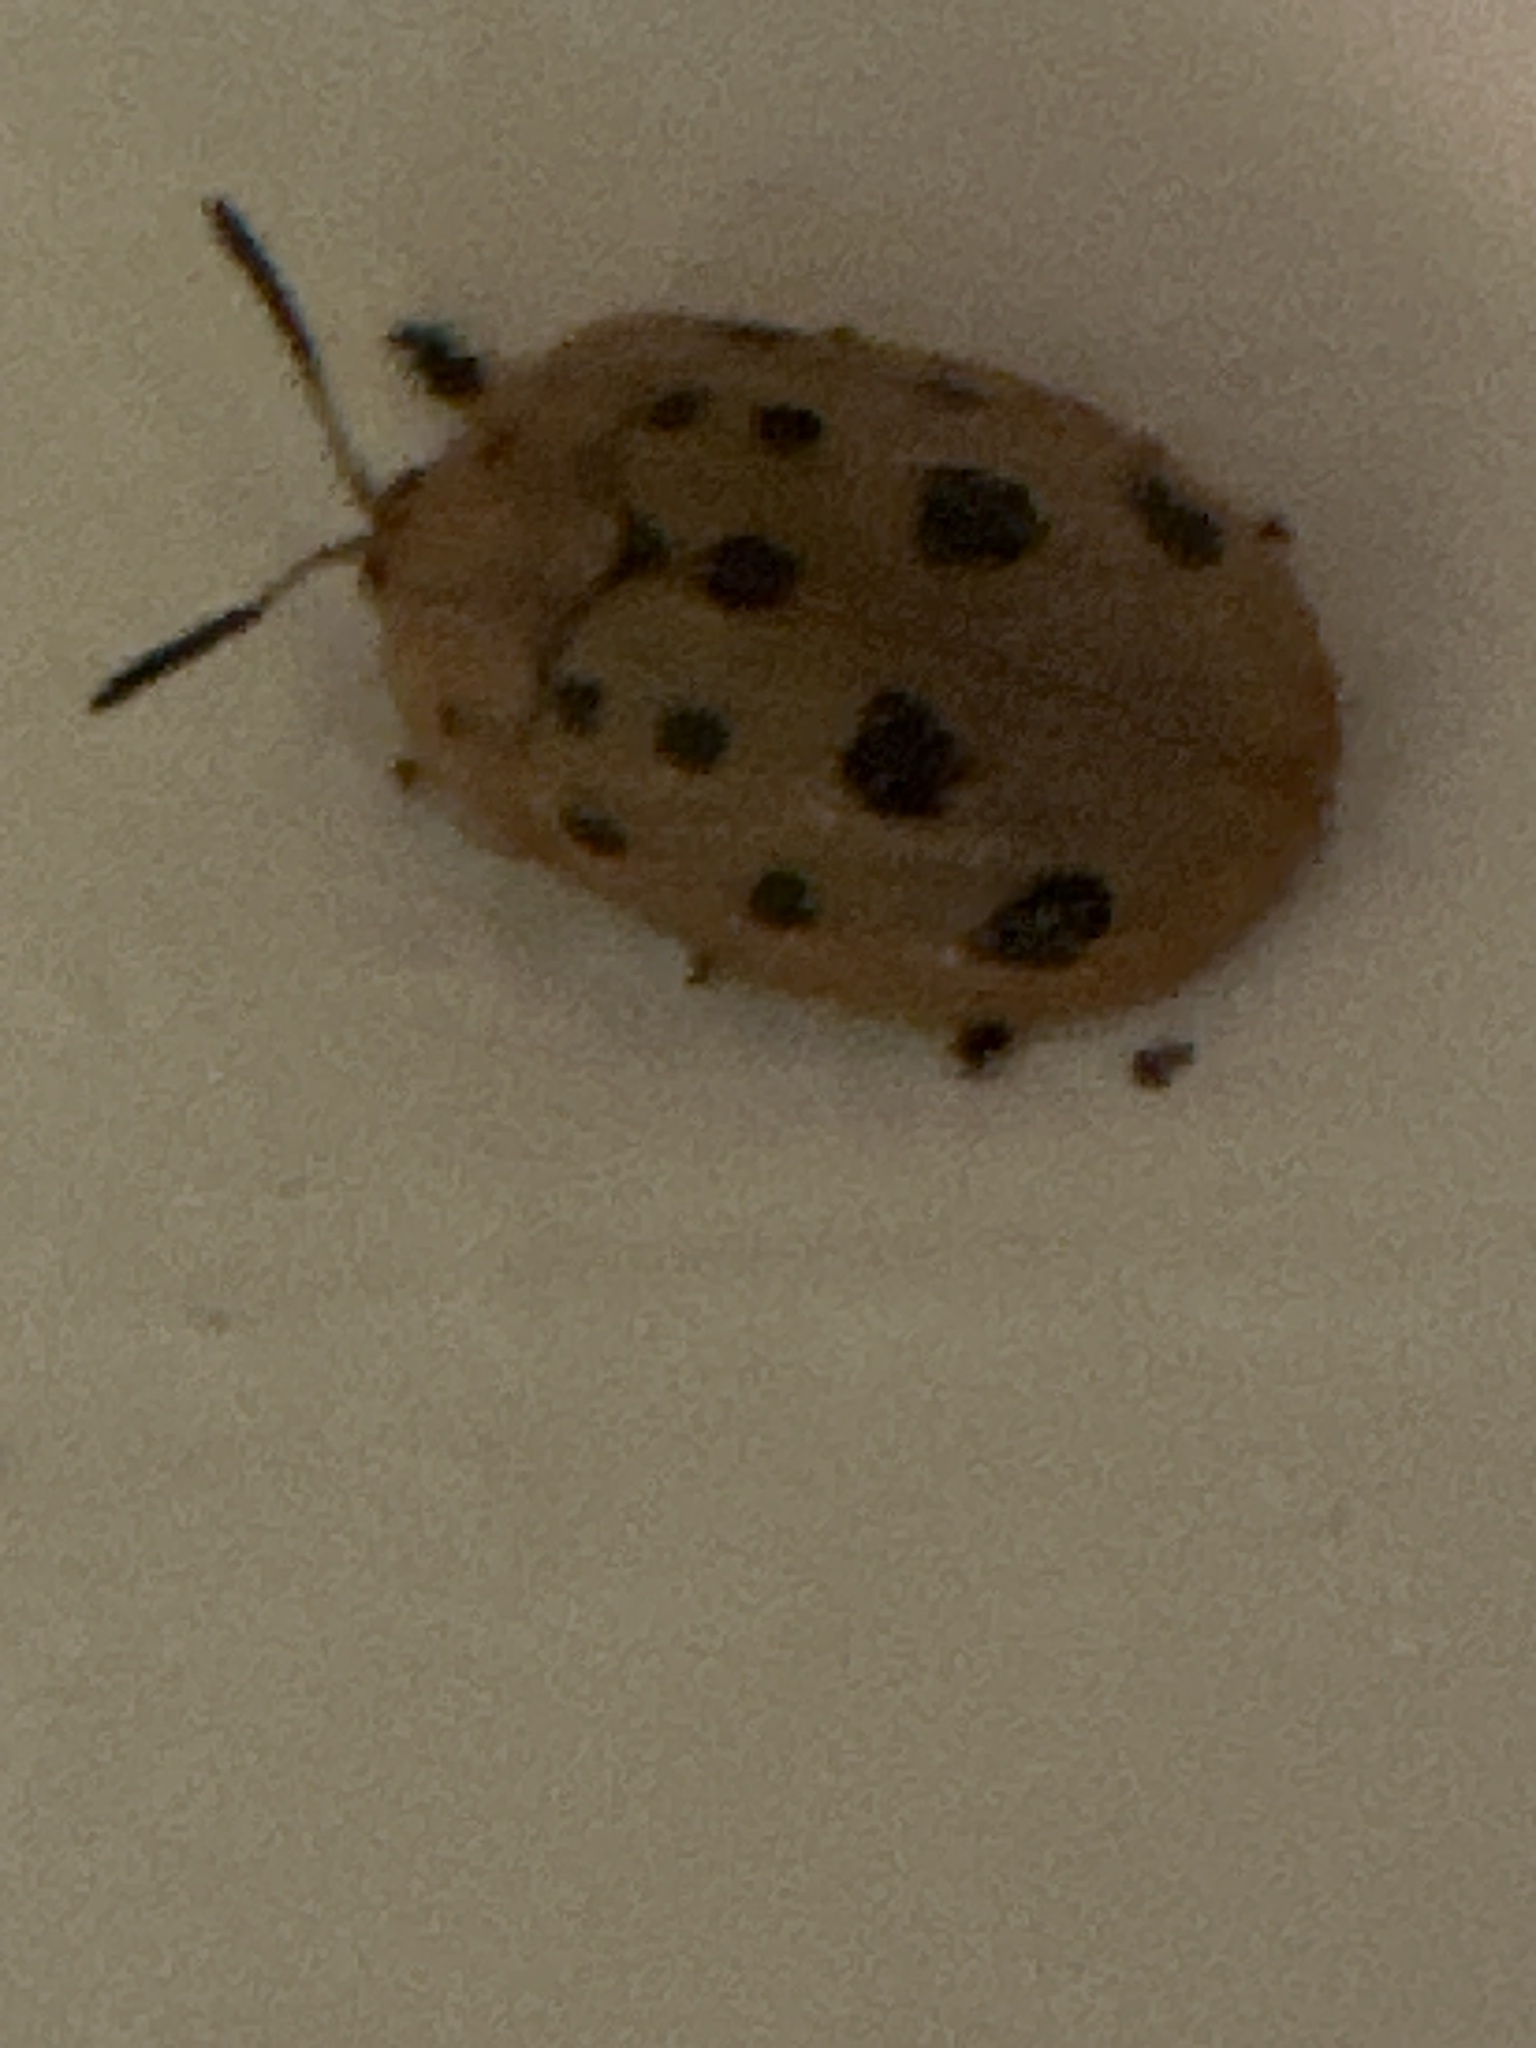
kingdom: Animalia
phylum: Arthropoda
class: Insecta
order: Coleoptera
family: Chrysomelidae
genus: Chelymorpha
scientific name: Chelymorpha cassidea
